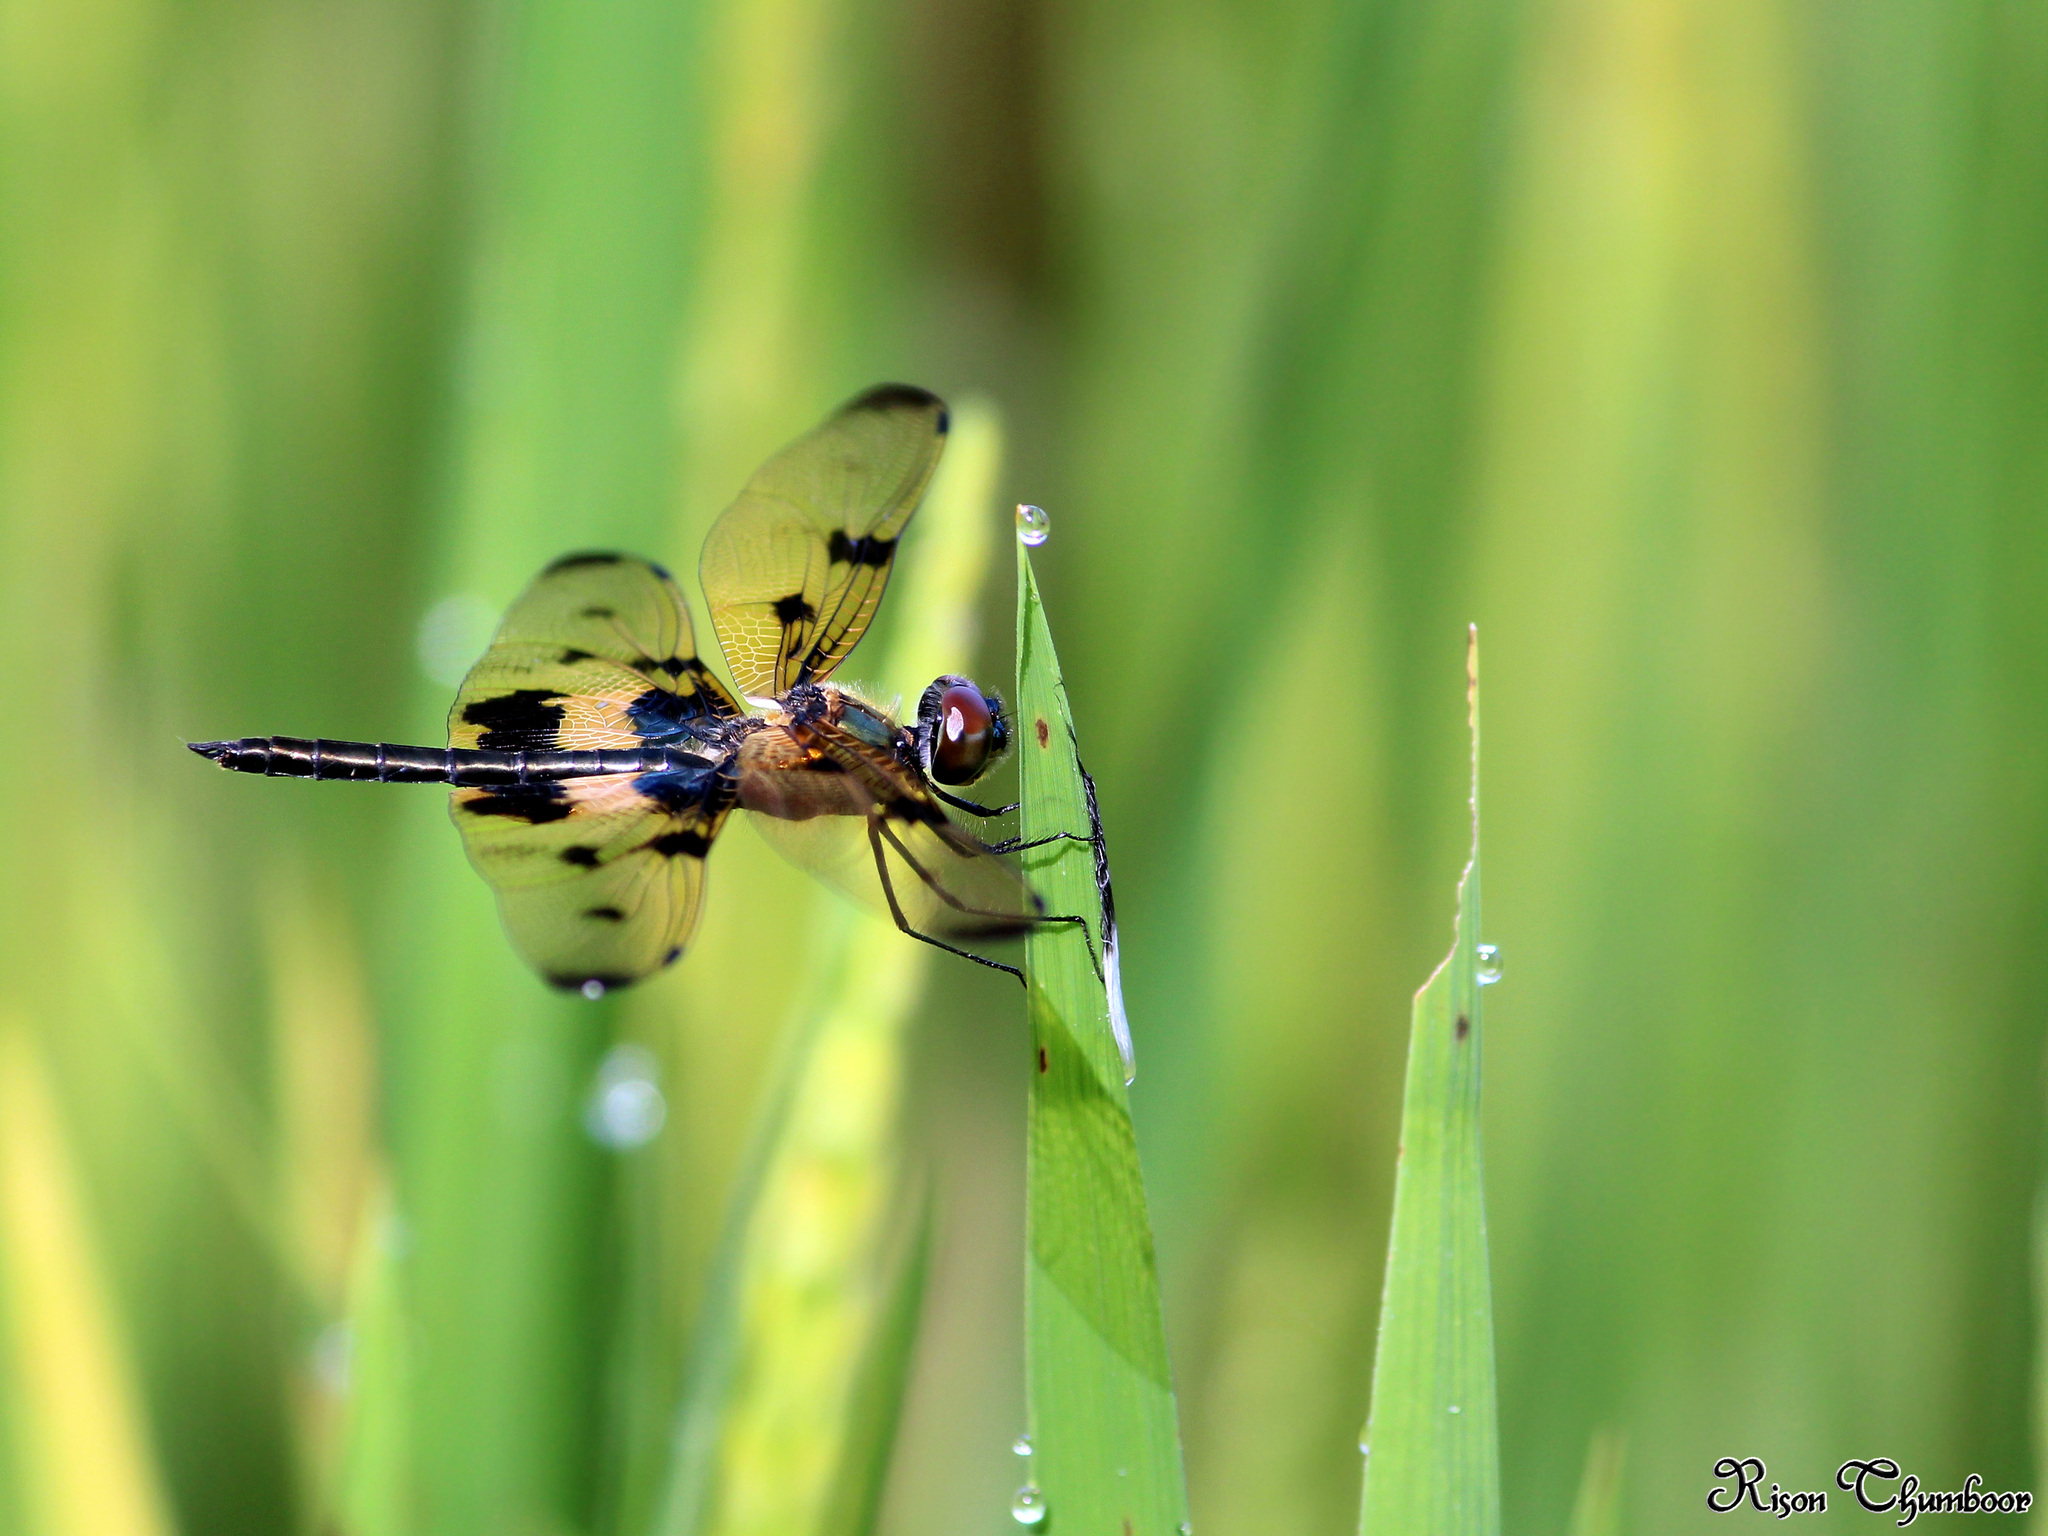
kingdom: Animalia
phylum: Arthropoda
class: Insecta
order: Odonata
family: Libellulidae
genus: Rhyothemis
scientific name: Rhyothemis variegata
